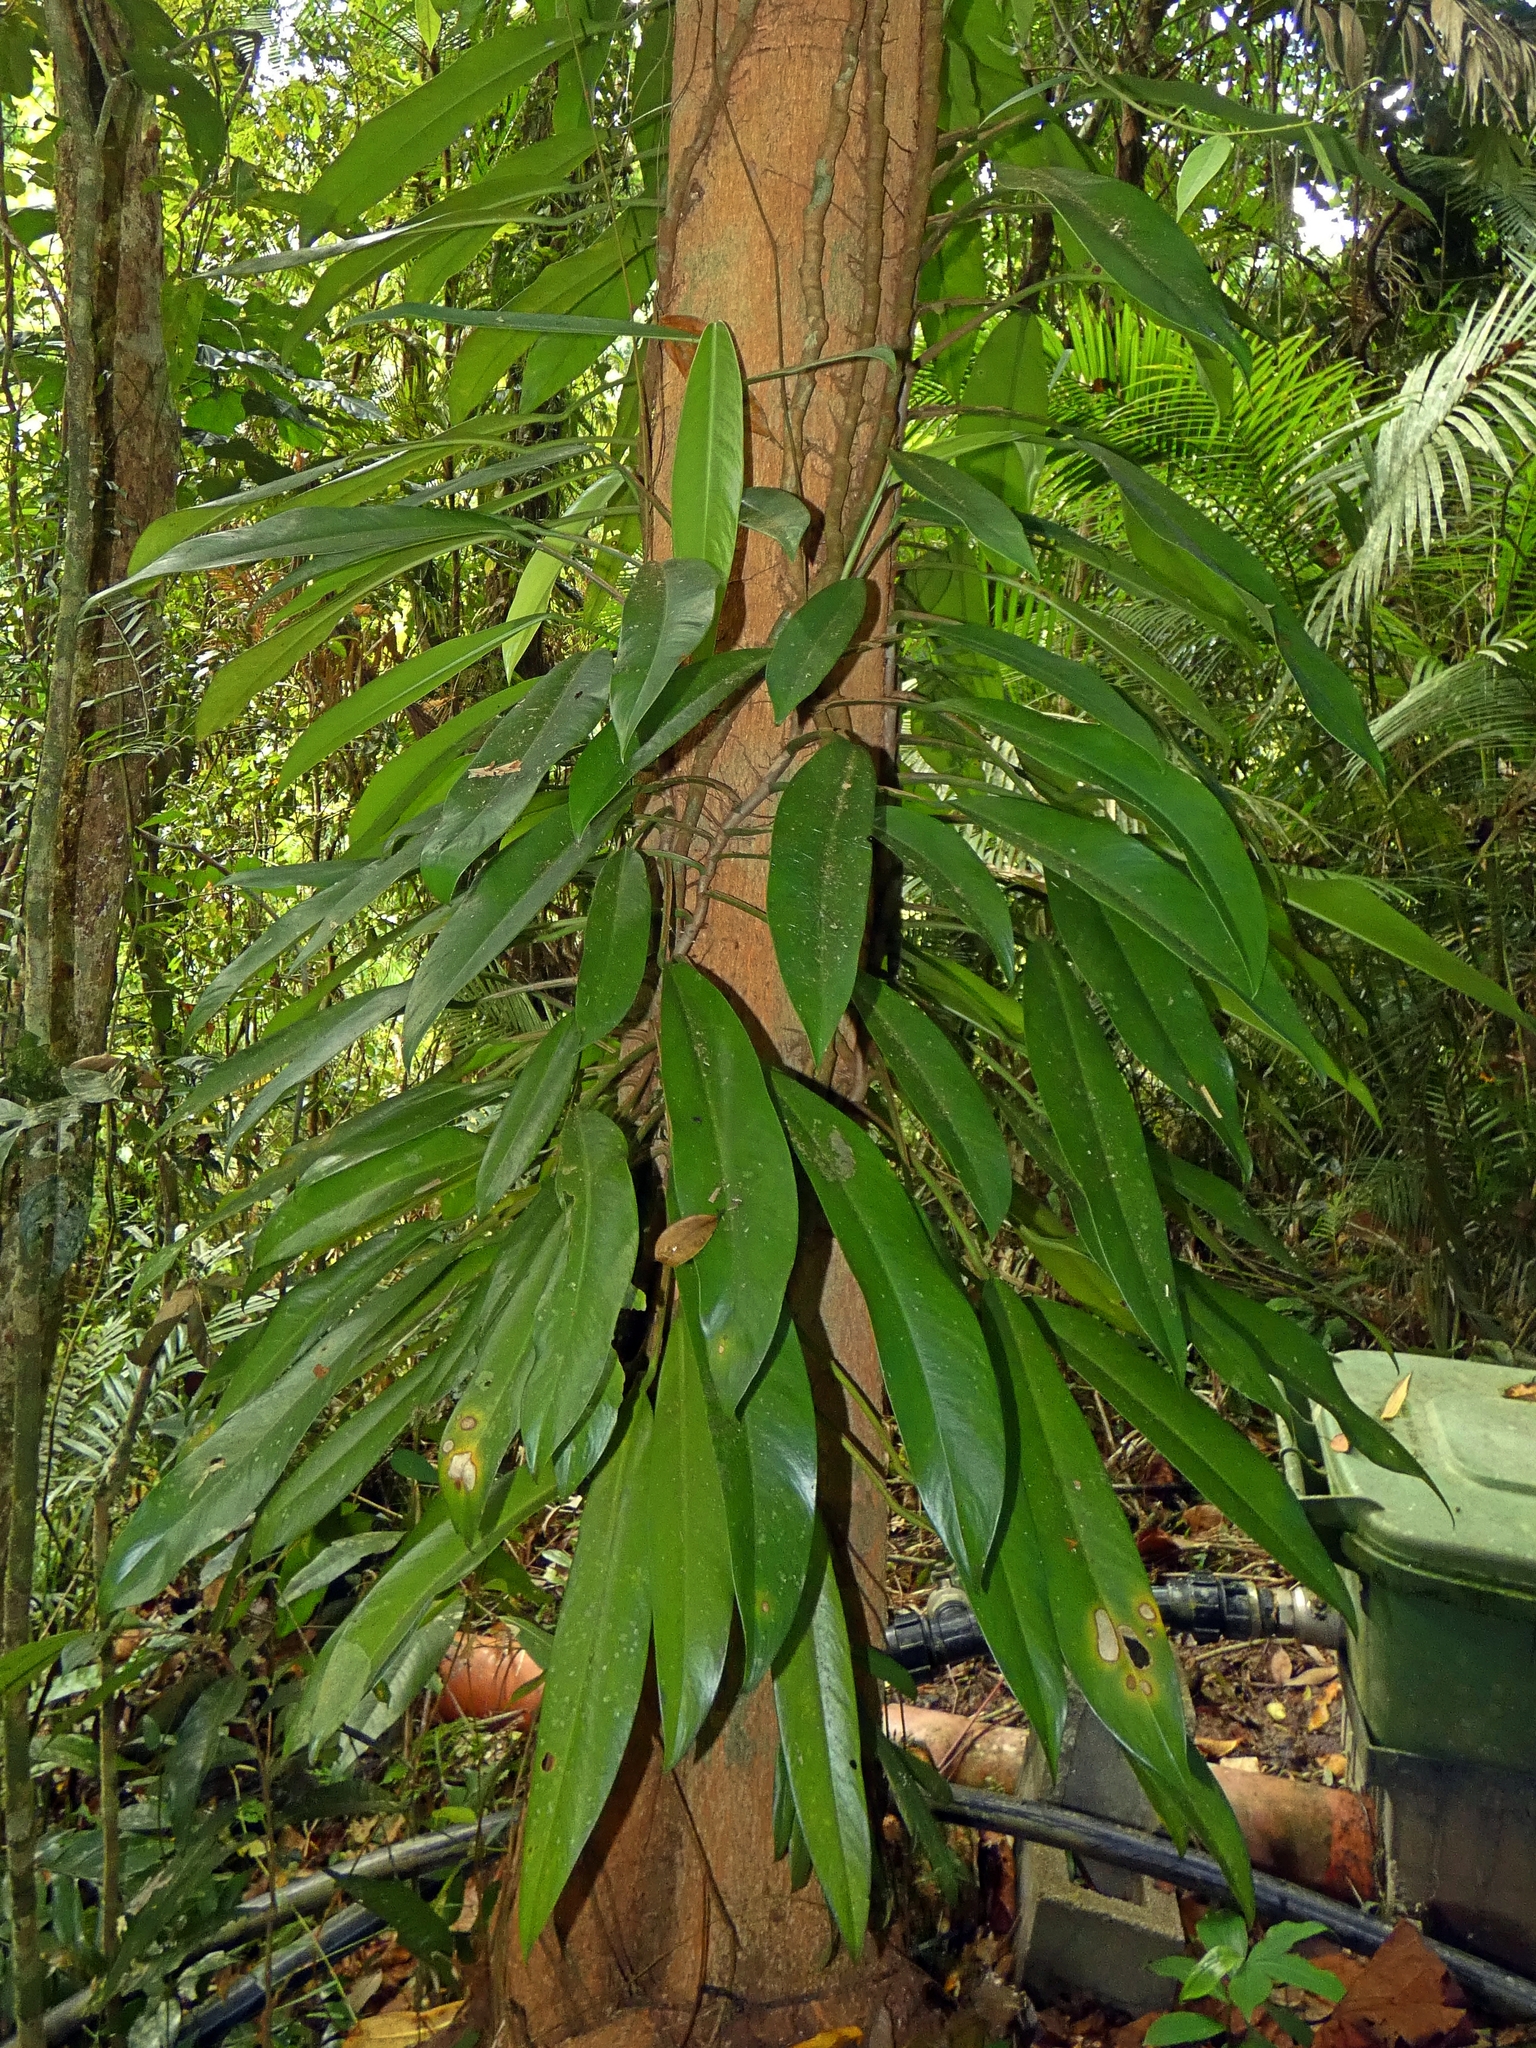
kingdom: Plantae
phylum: Tracheophyta
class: Liliopsida
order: Alismatales
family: Araceae
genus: Rhaphidophora
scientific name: Rhaphidophora australasica
